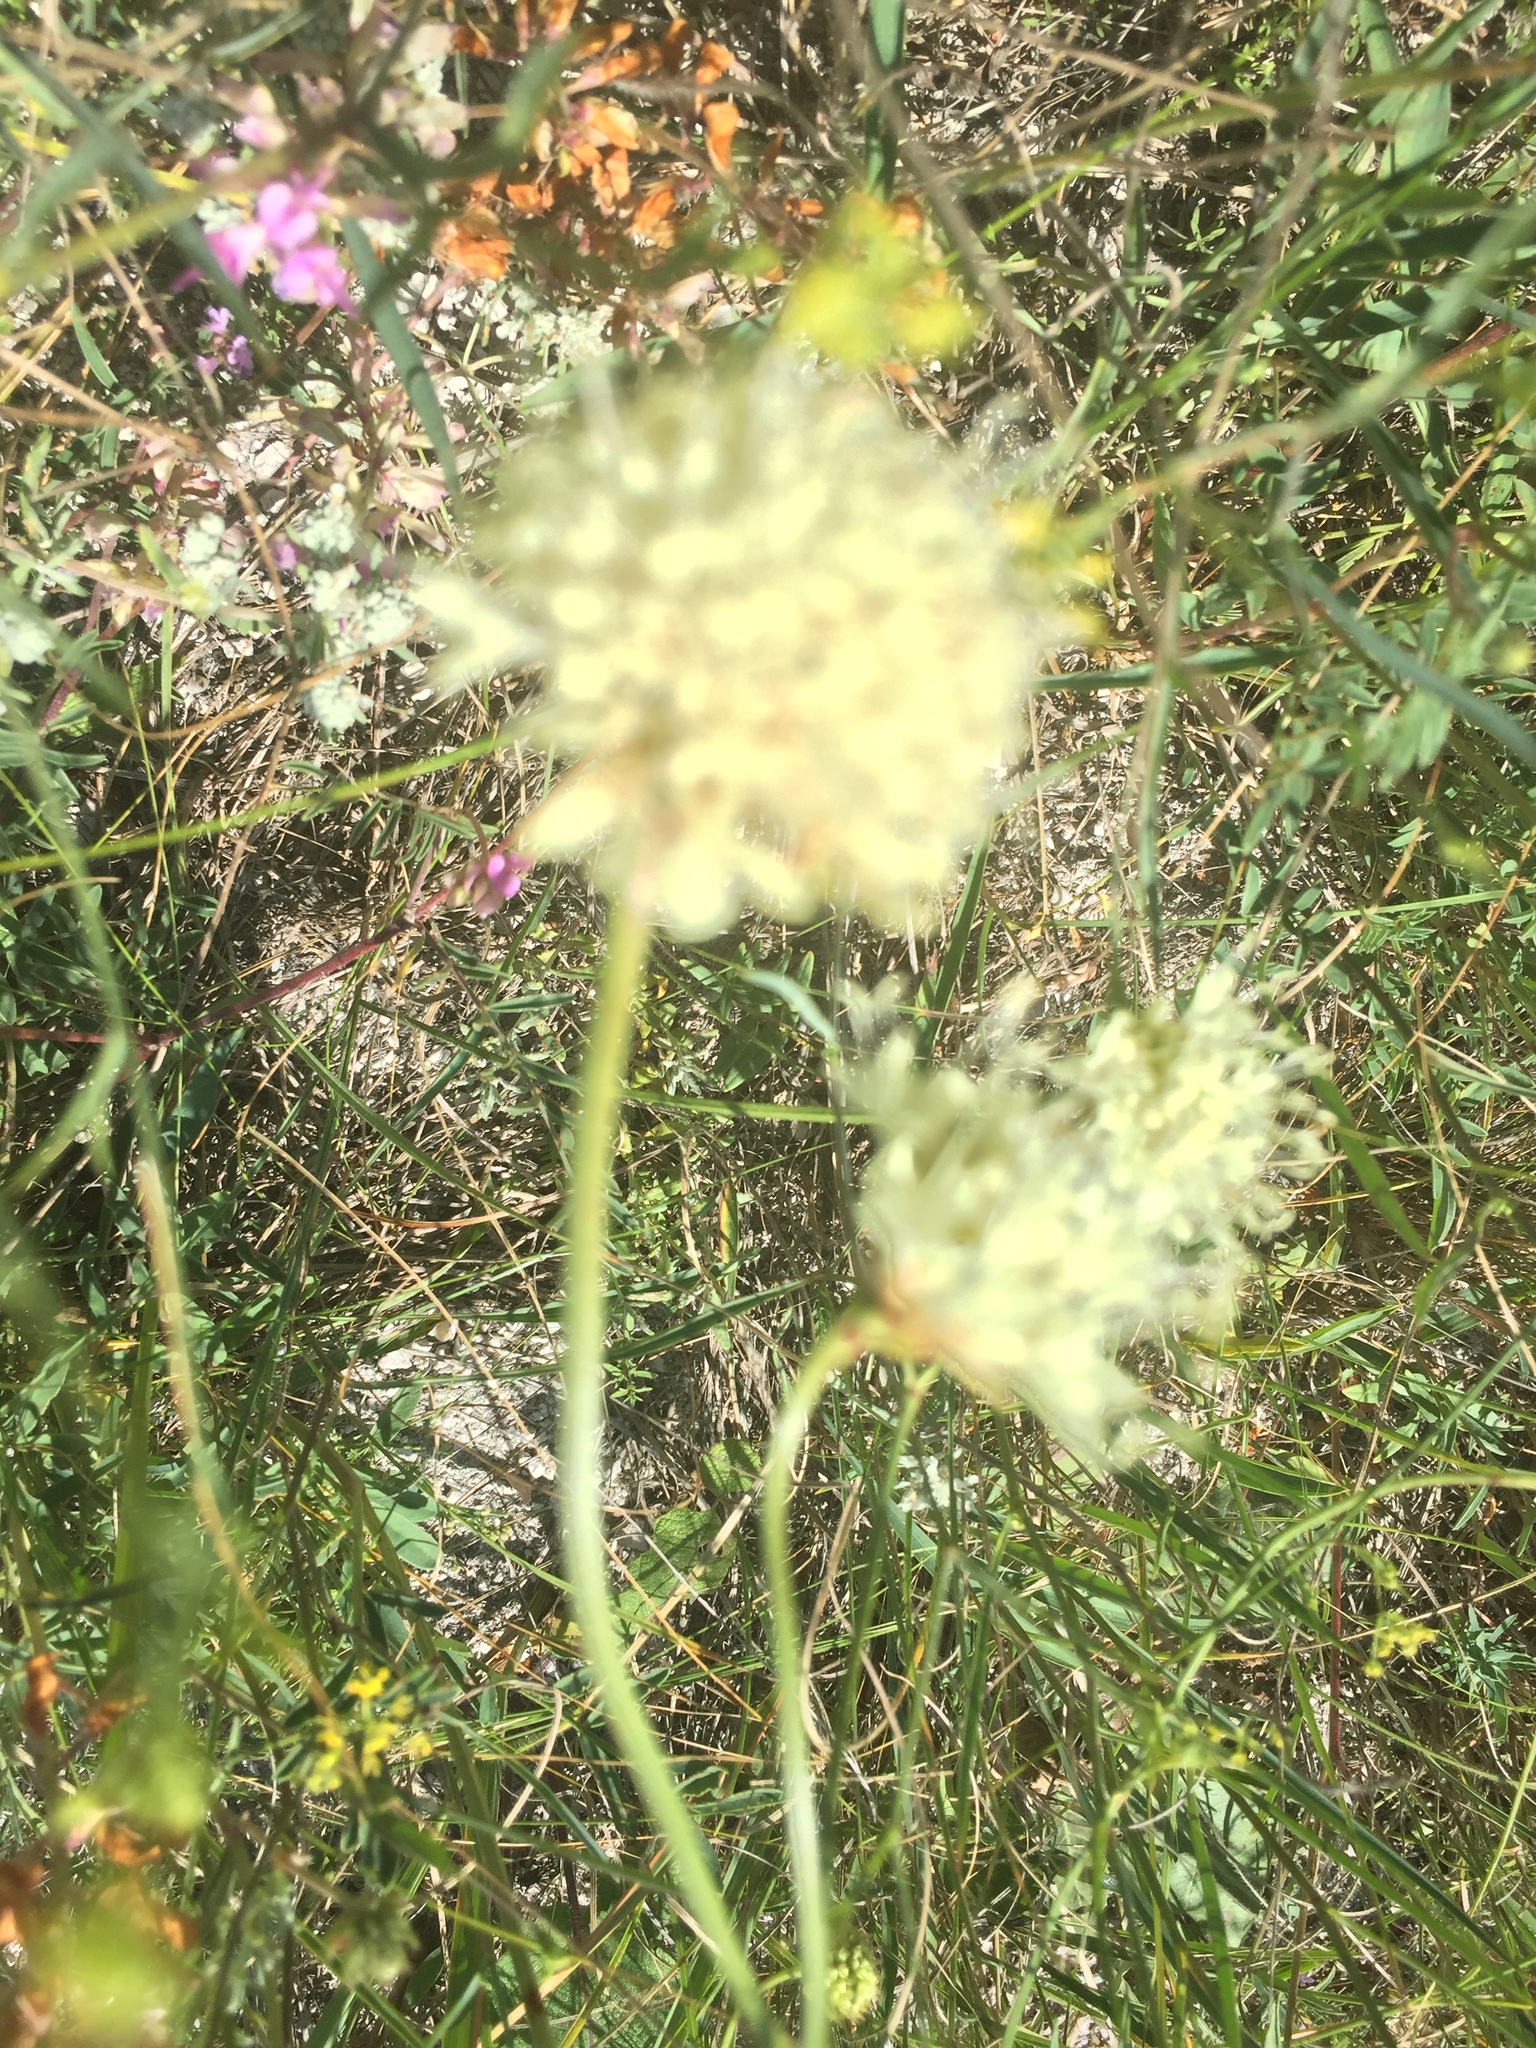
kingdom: Plantae
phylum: Tracheophyta
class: Magnoliopsida
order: Dipsacales
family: Caprifoliaceae
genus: Cephalaria
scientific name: Cephalaria uralensis
